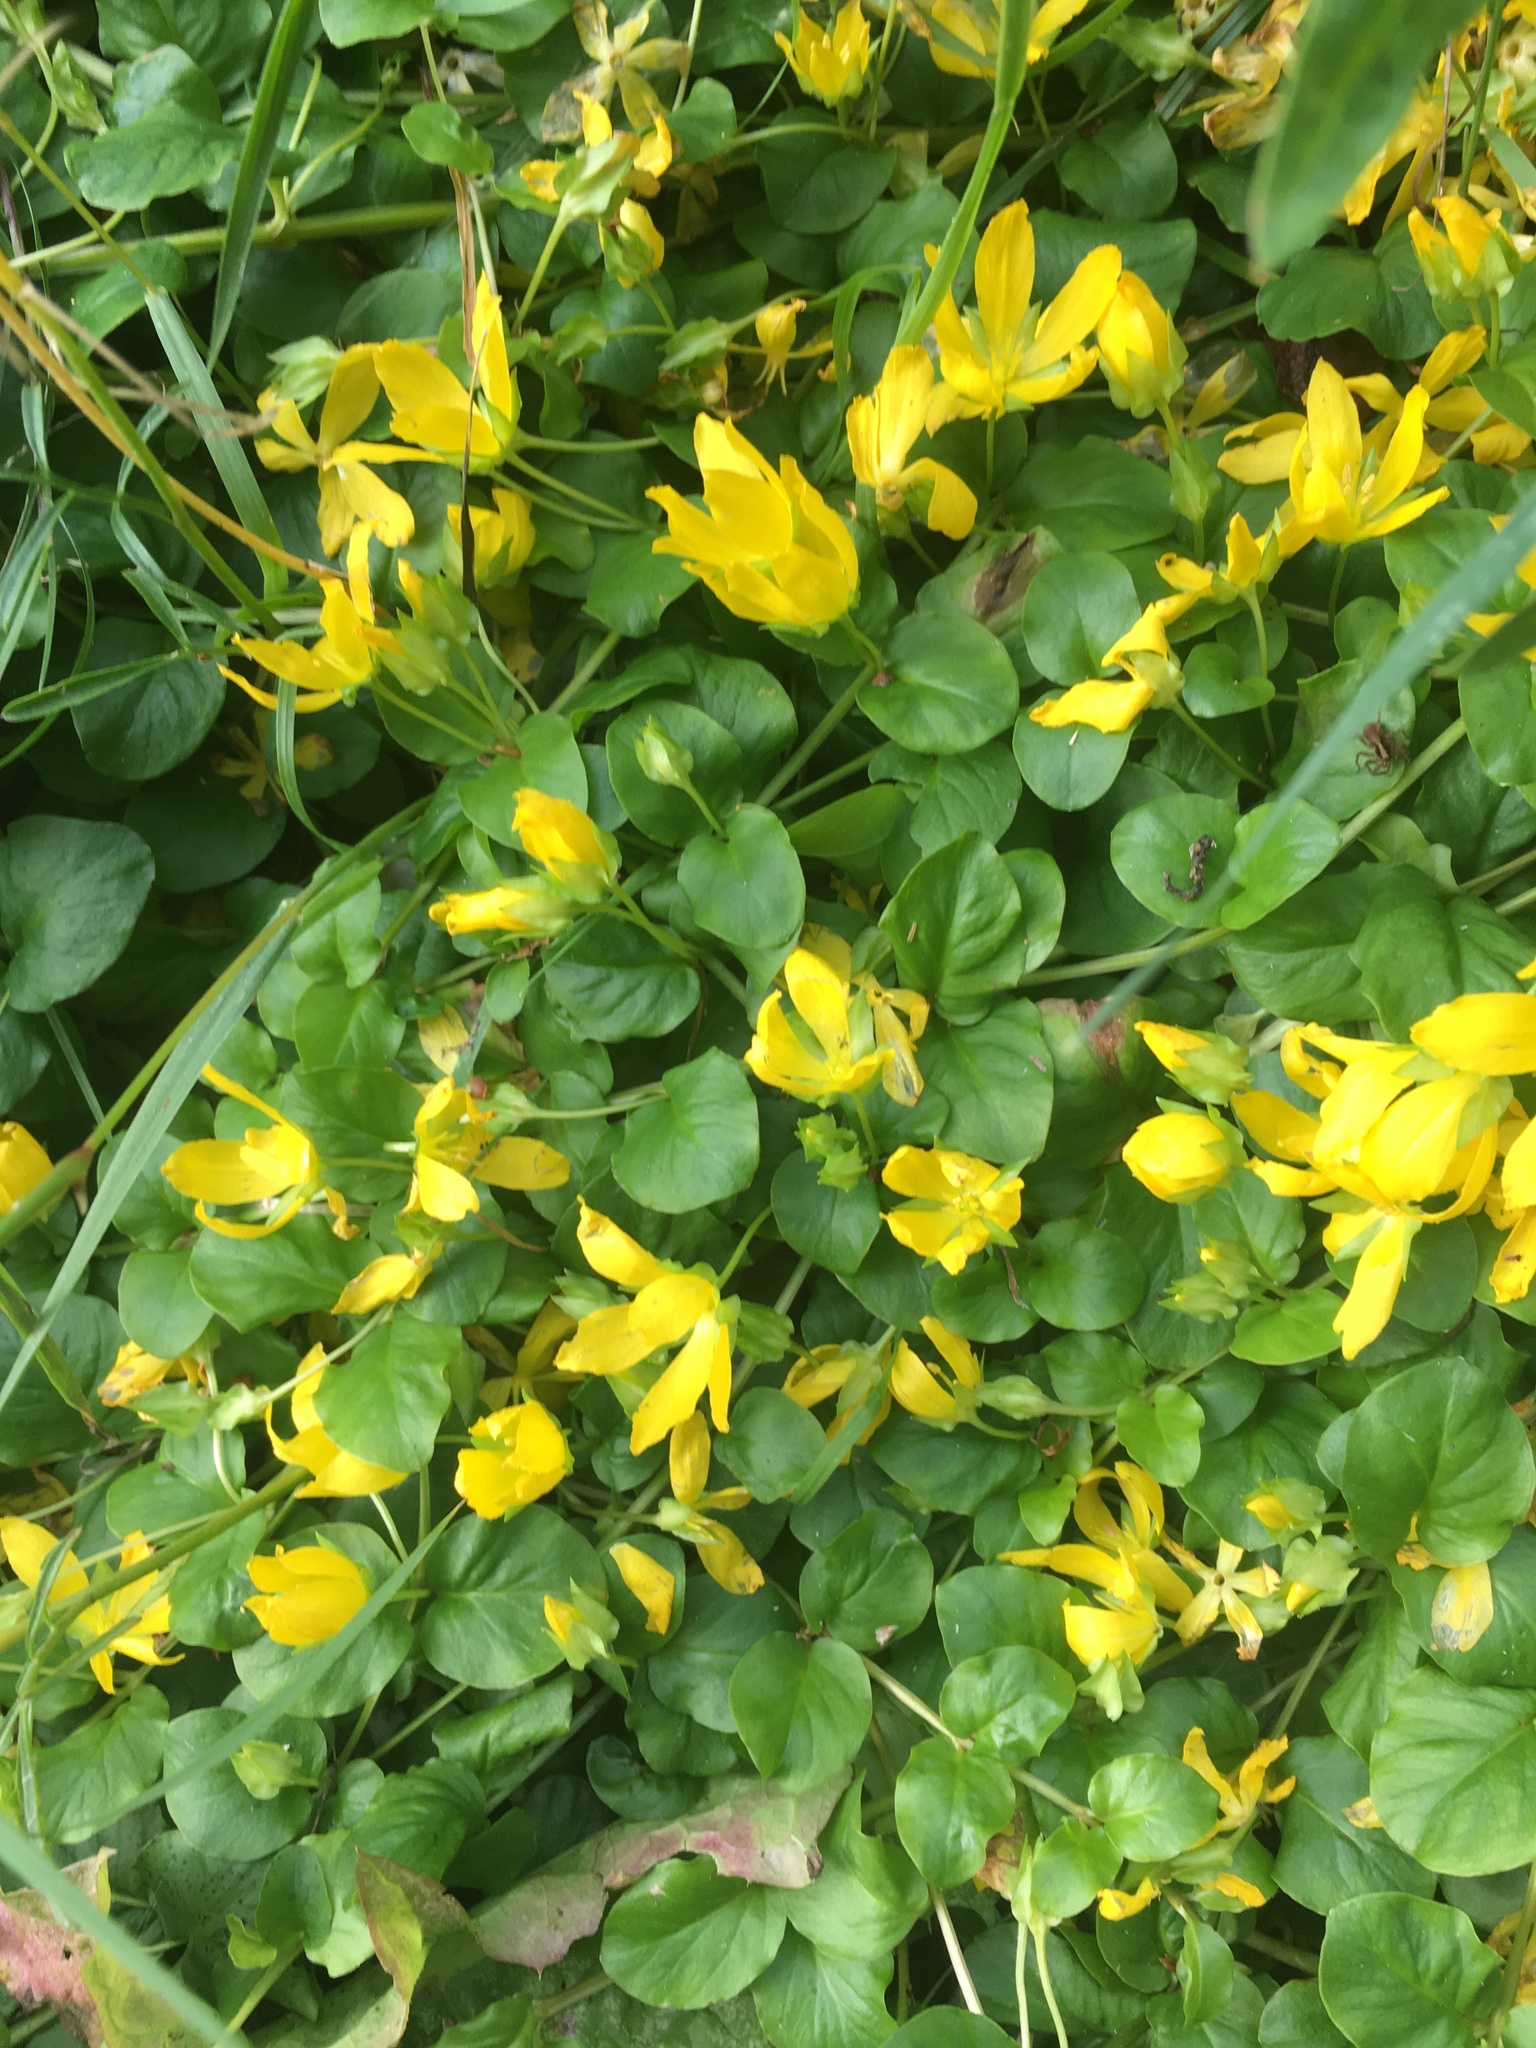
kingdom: Plantae
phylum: Tracheophyta
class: Magnoliopsida
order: Ericales
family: Primulaceae
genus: Lysimachia
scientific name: Lysimachia nummularia
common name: Moneywort
